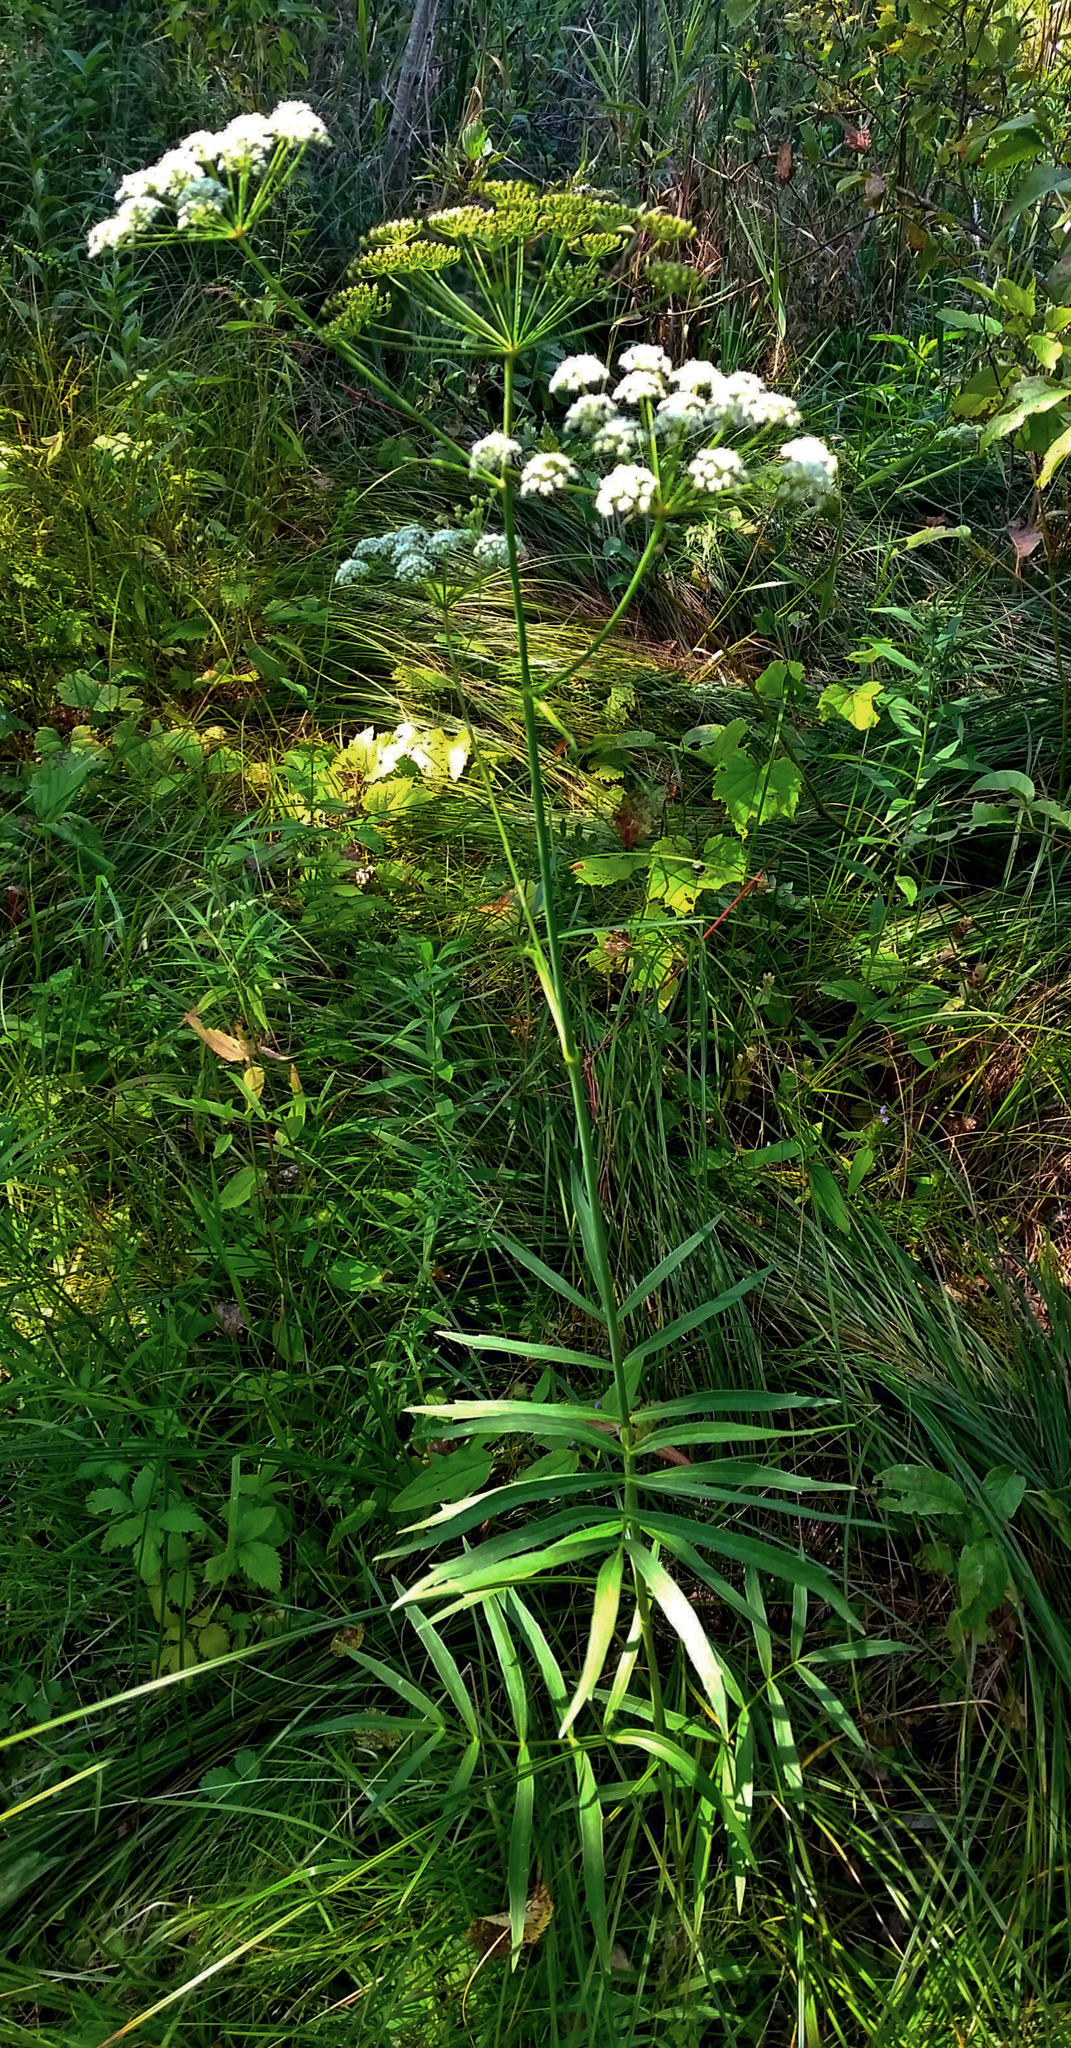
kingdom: Plantae
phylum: Tracheophyta
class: Magnoliopsida
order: Apiales
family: Apiaceae
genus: Oxypolis
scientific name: Oxypolis rigidior
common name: Cowbane
